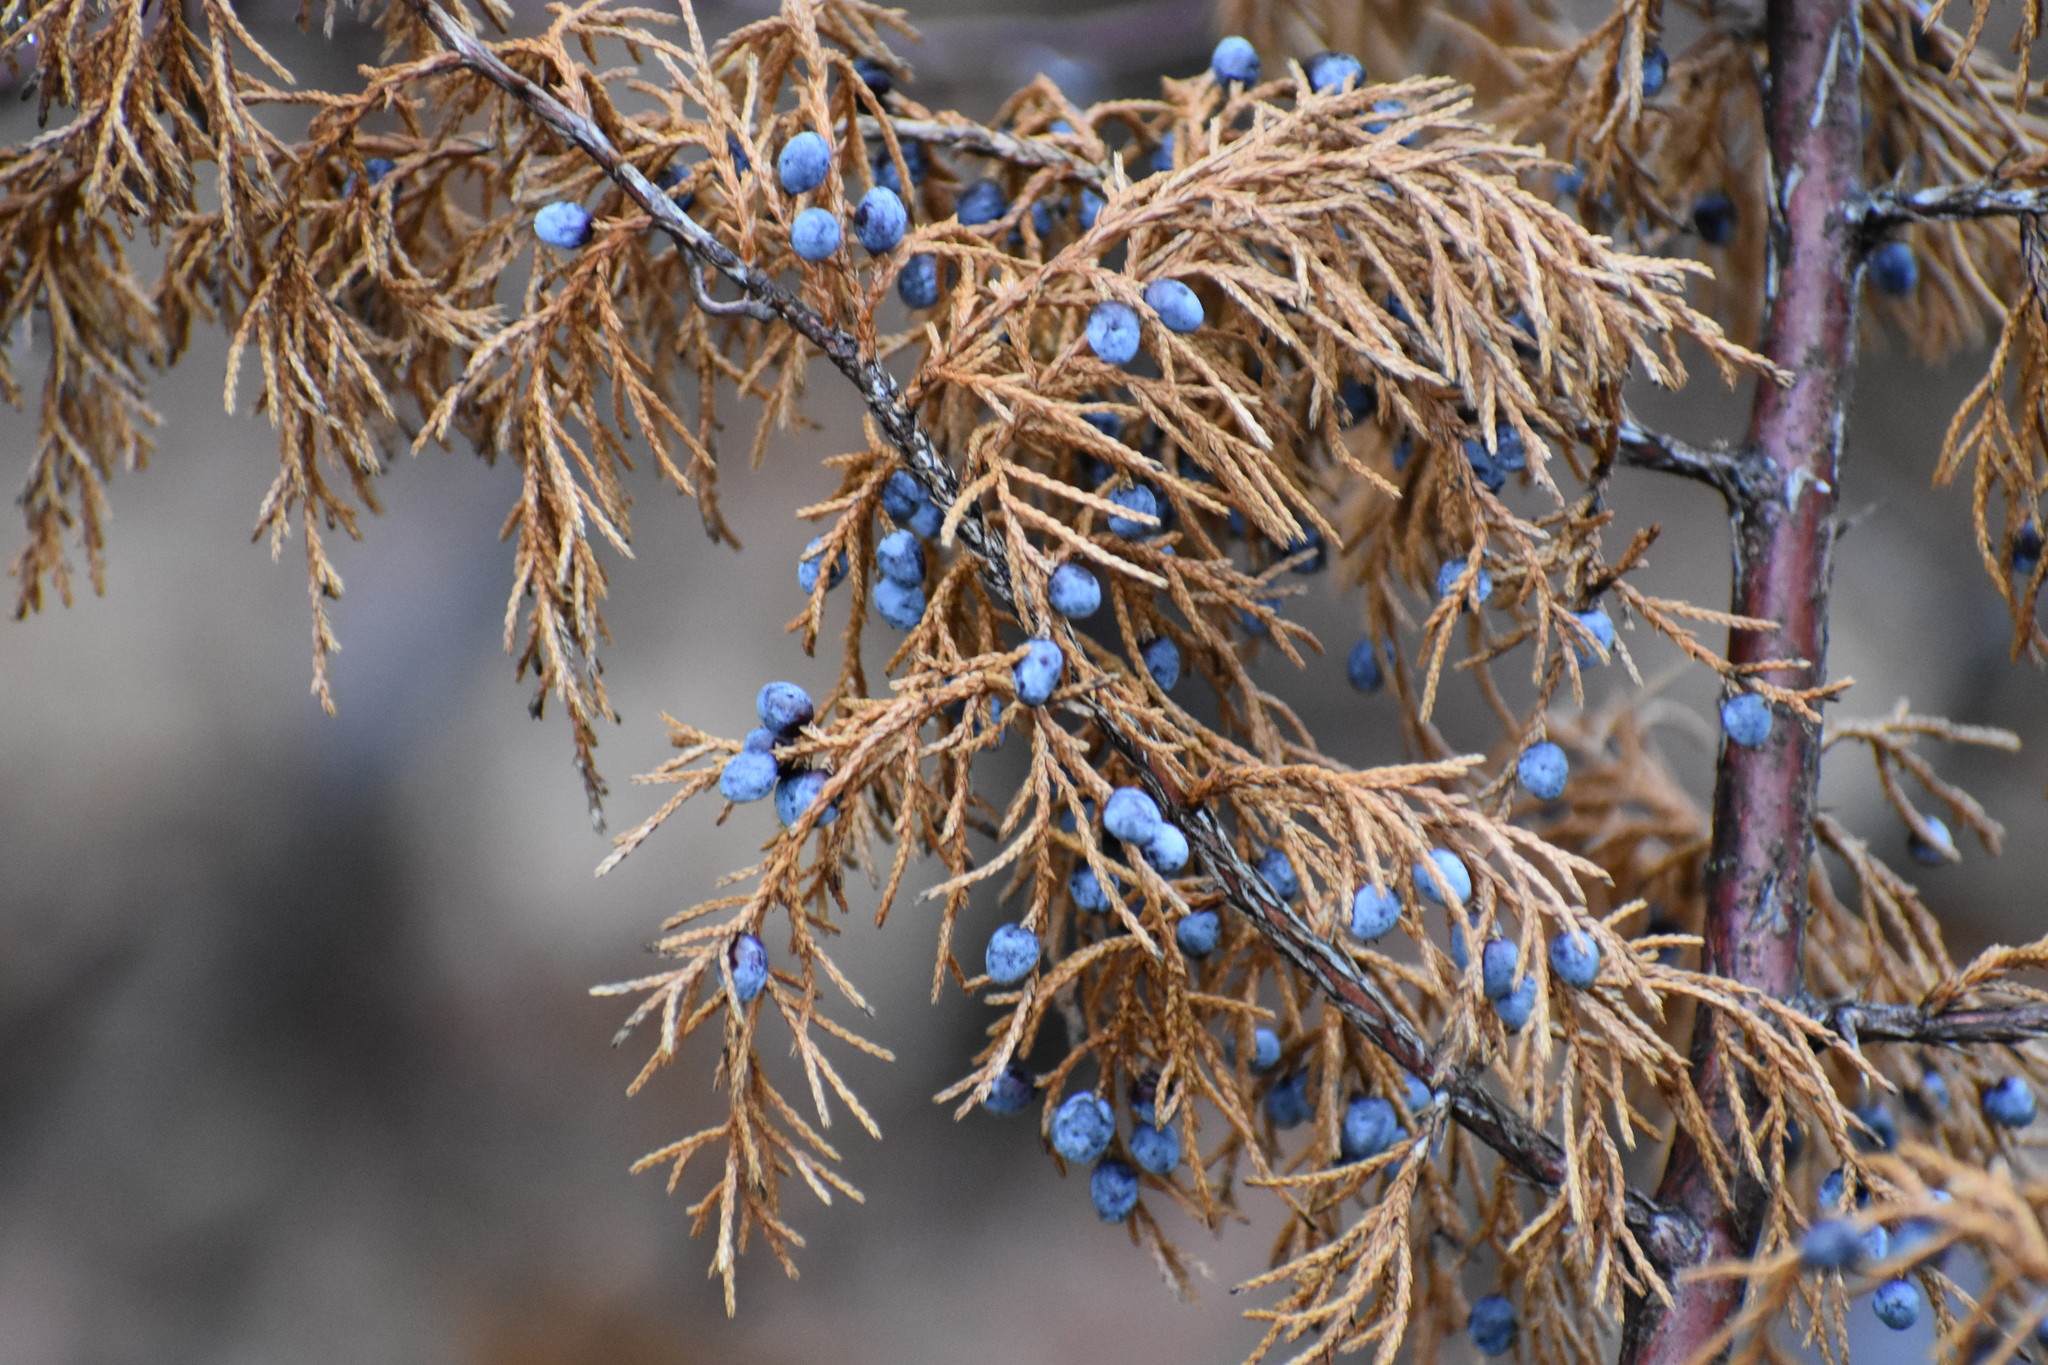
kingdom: Plantae
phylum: Tracheophyta
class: Pinopsida
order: Pinales
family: Cupressaceae
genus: Juniperus
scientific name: Juniperus virginiana
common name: Red juniper
